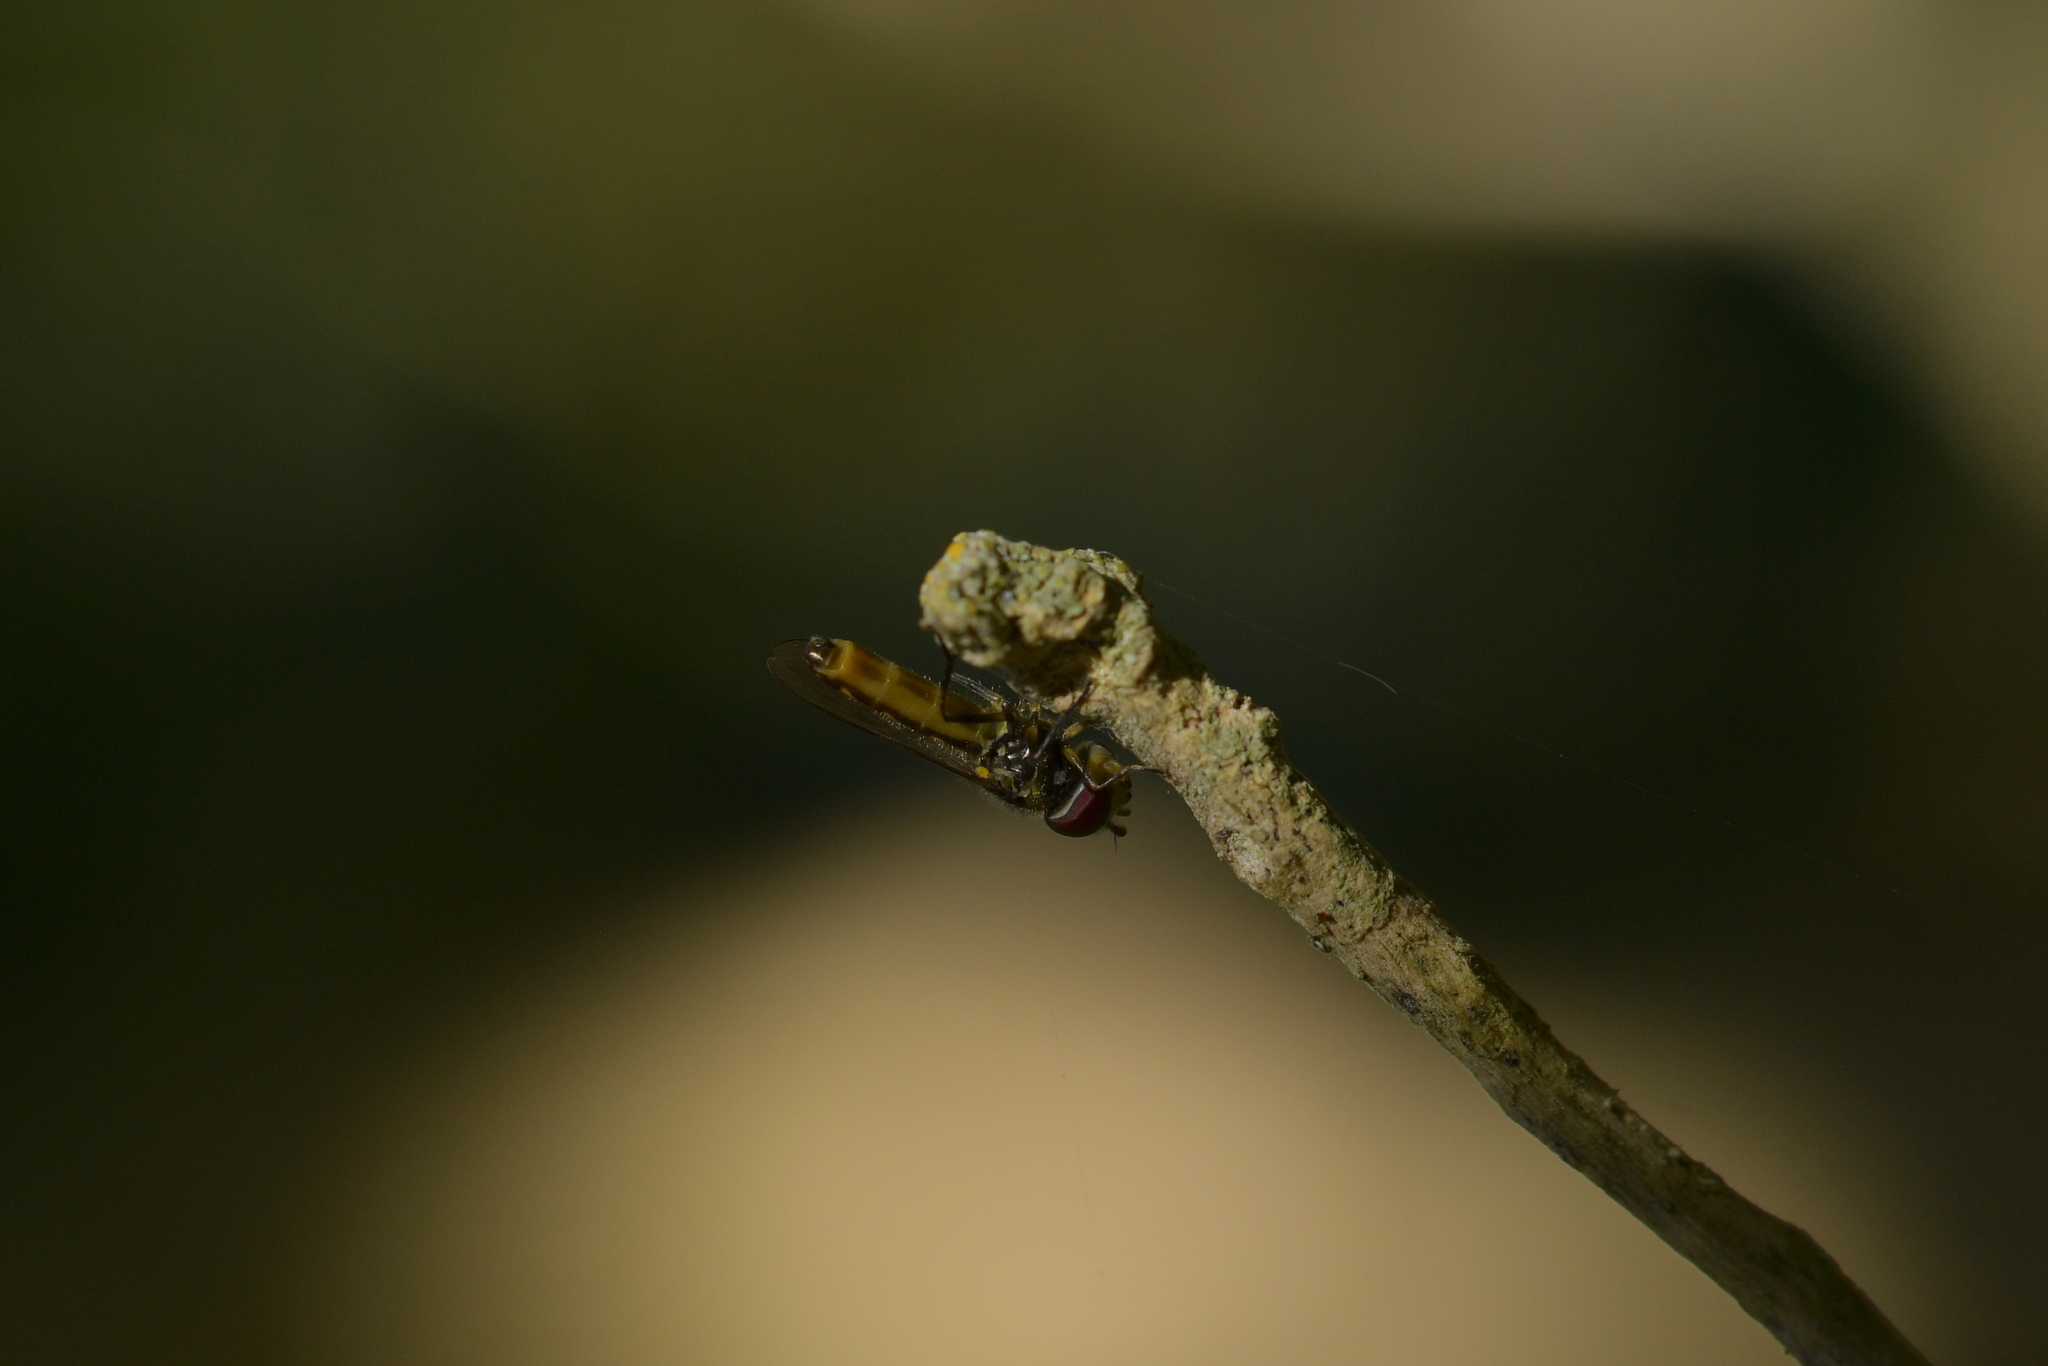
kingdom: Animalia
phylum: Arthropoda
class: Insecta
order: Diptera
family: Syrphidae
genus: Melanostoma
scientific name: Melanostoma fasciatum
